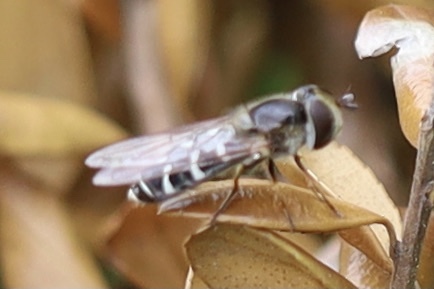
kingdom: Animalia
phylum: Arthropoda
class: Insecta
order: Diptera
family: Syrphidae
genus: Scaeva
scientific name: Scaeva affinis
